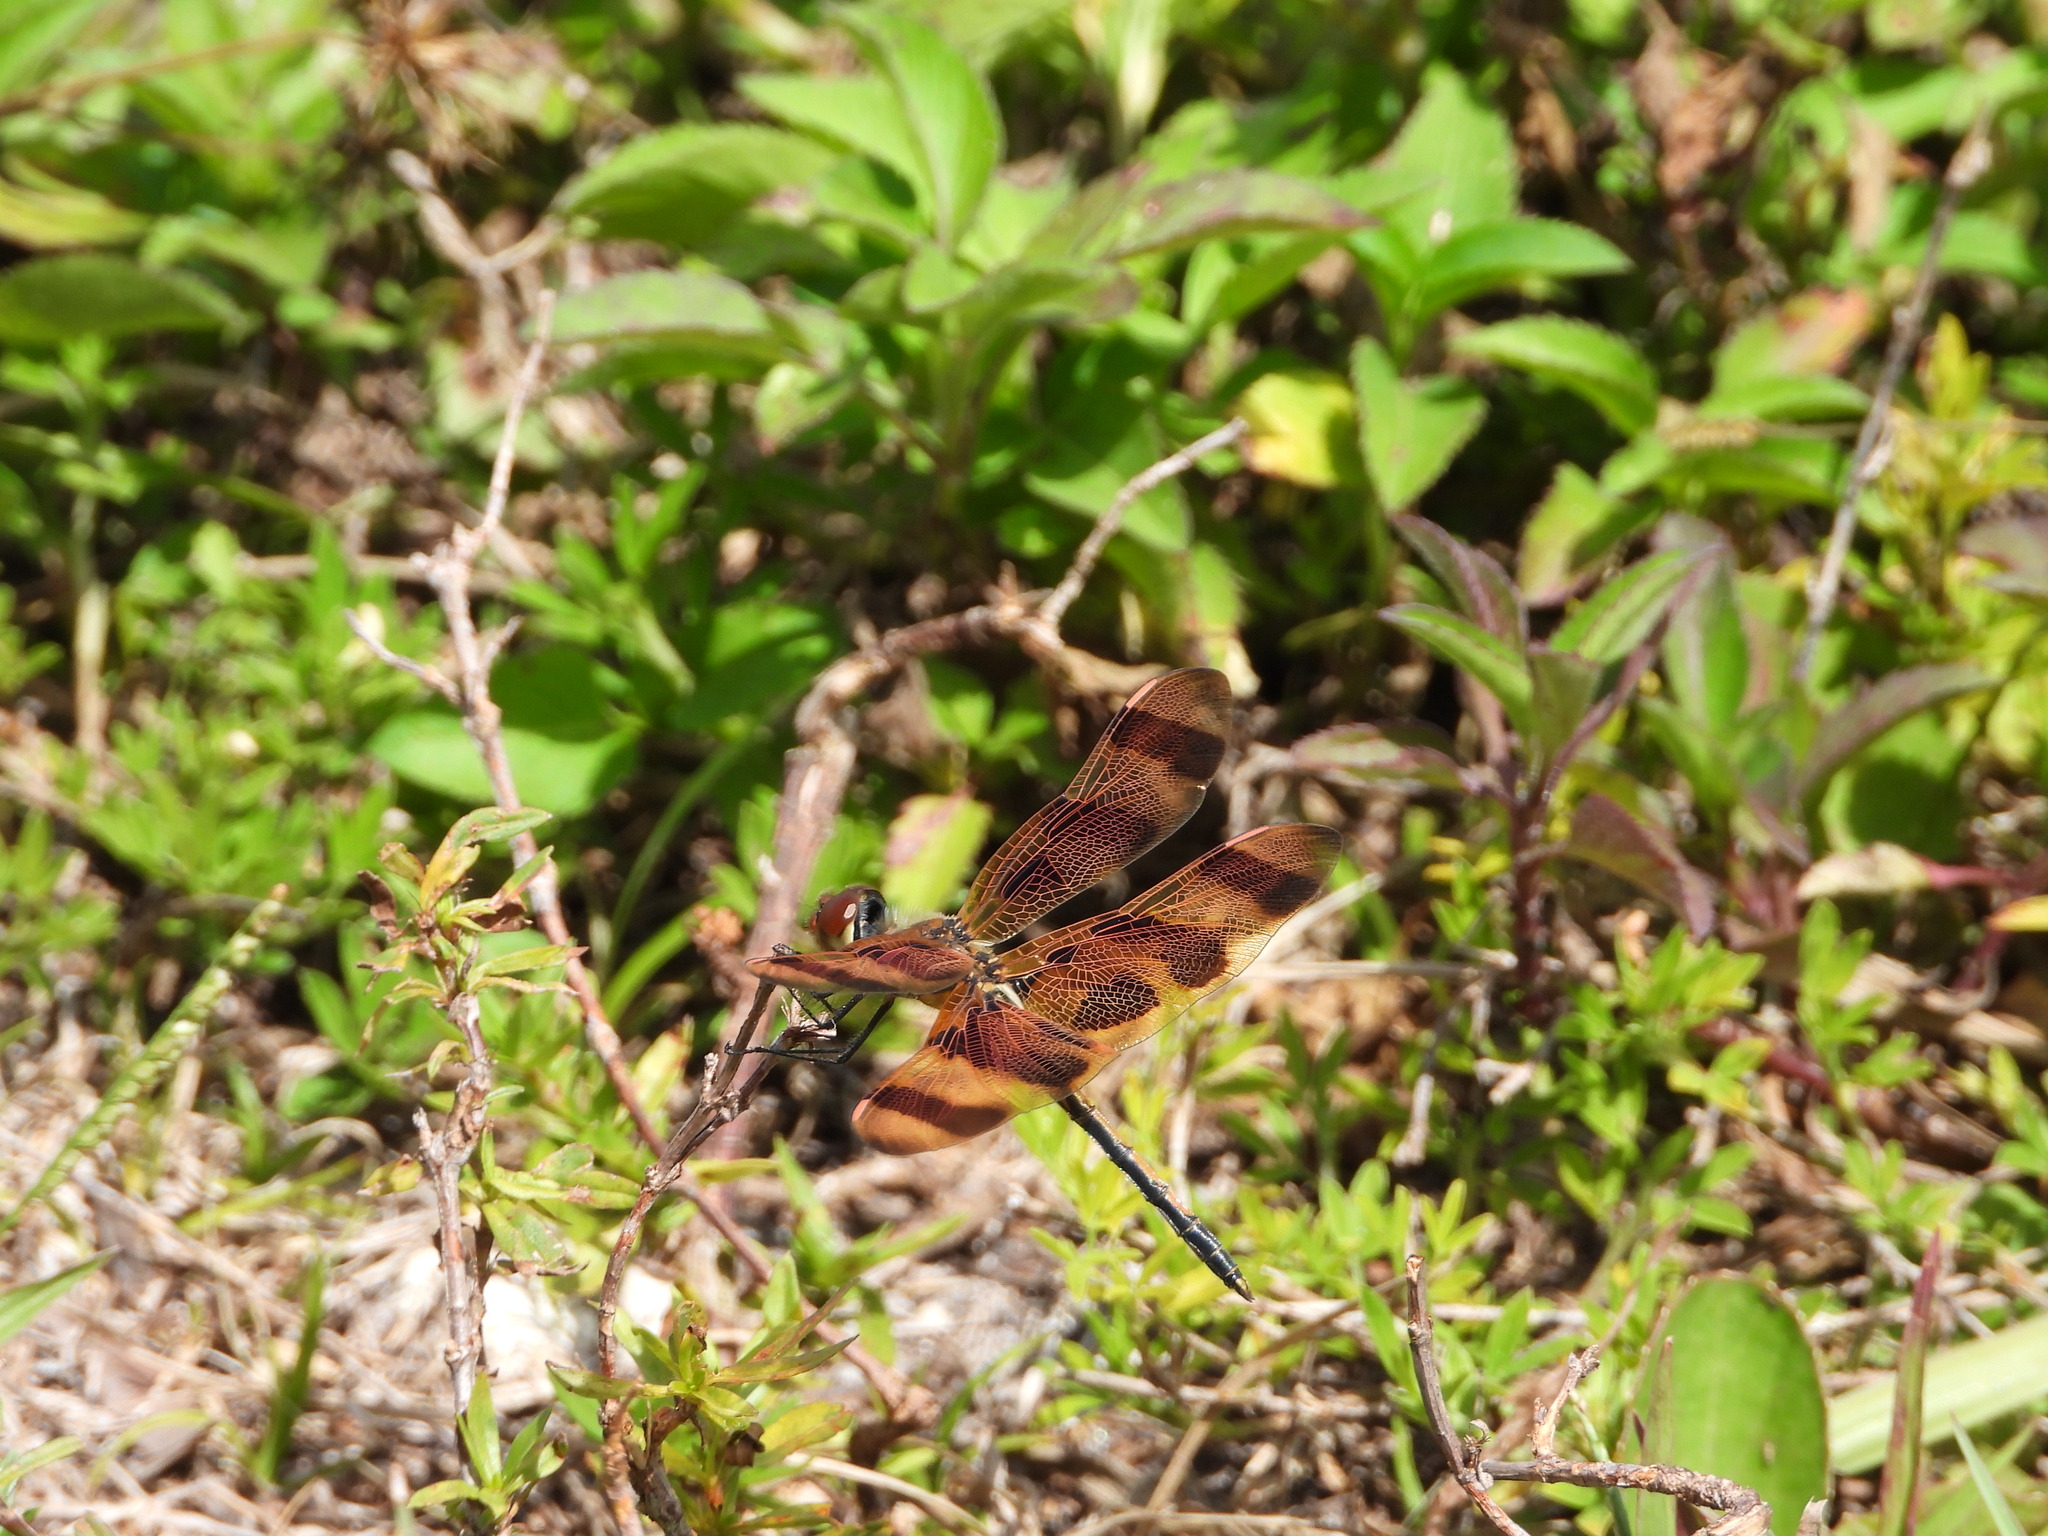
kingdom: Animalia
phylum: Arthropoda
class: Insecta
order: Odonata
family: Libellulidae
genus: Celithemis
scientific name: Celithemis eponina
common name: Halloween pennant
